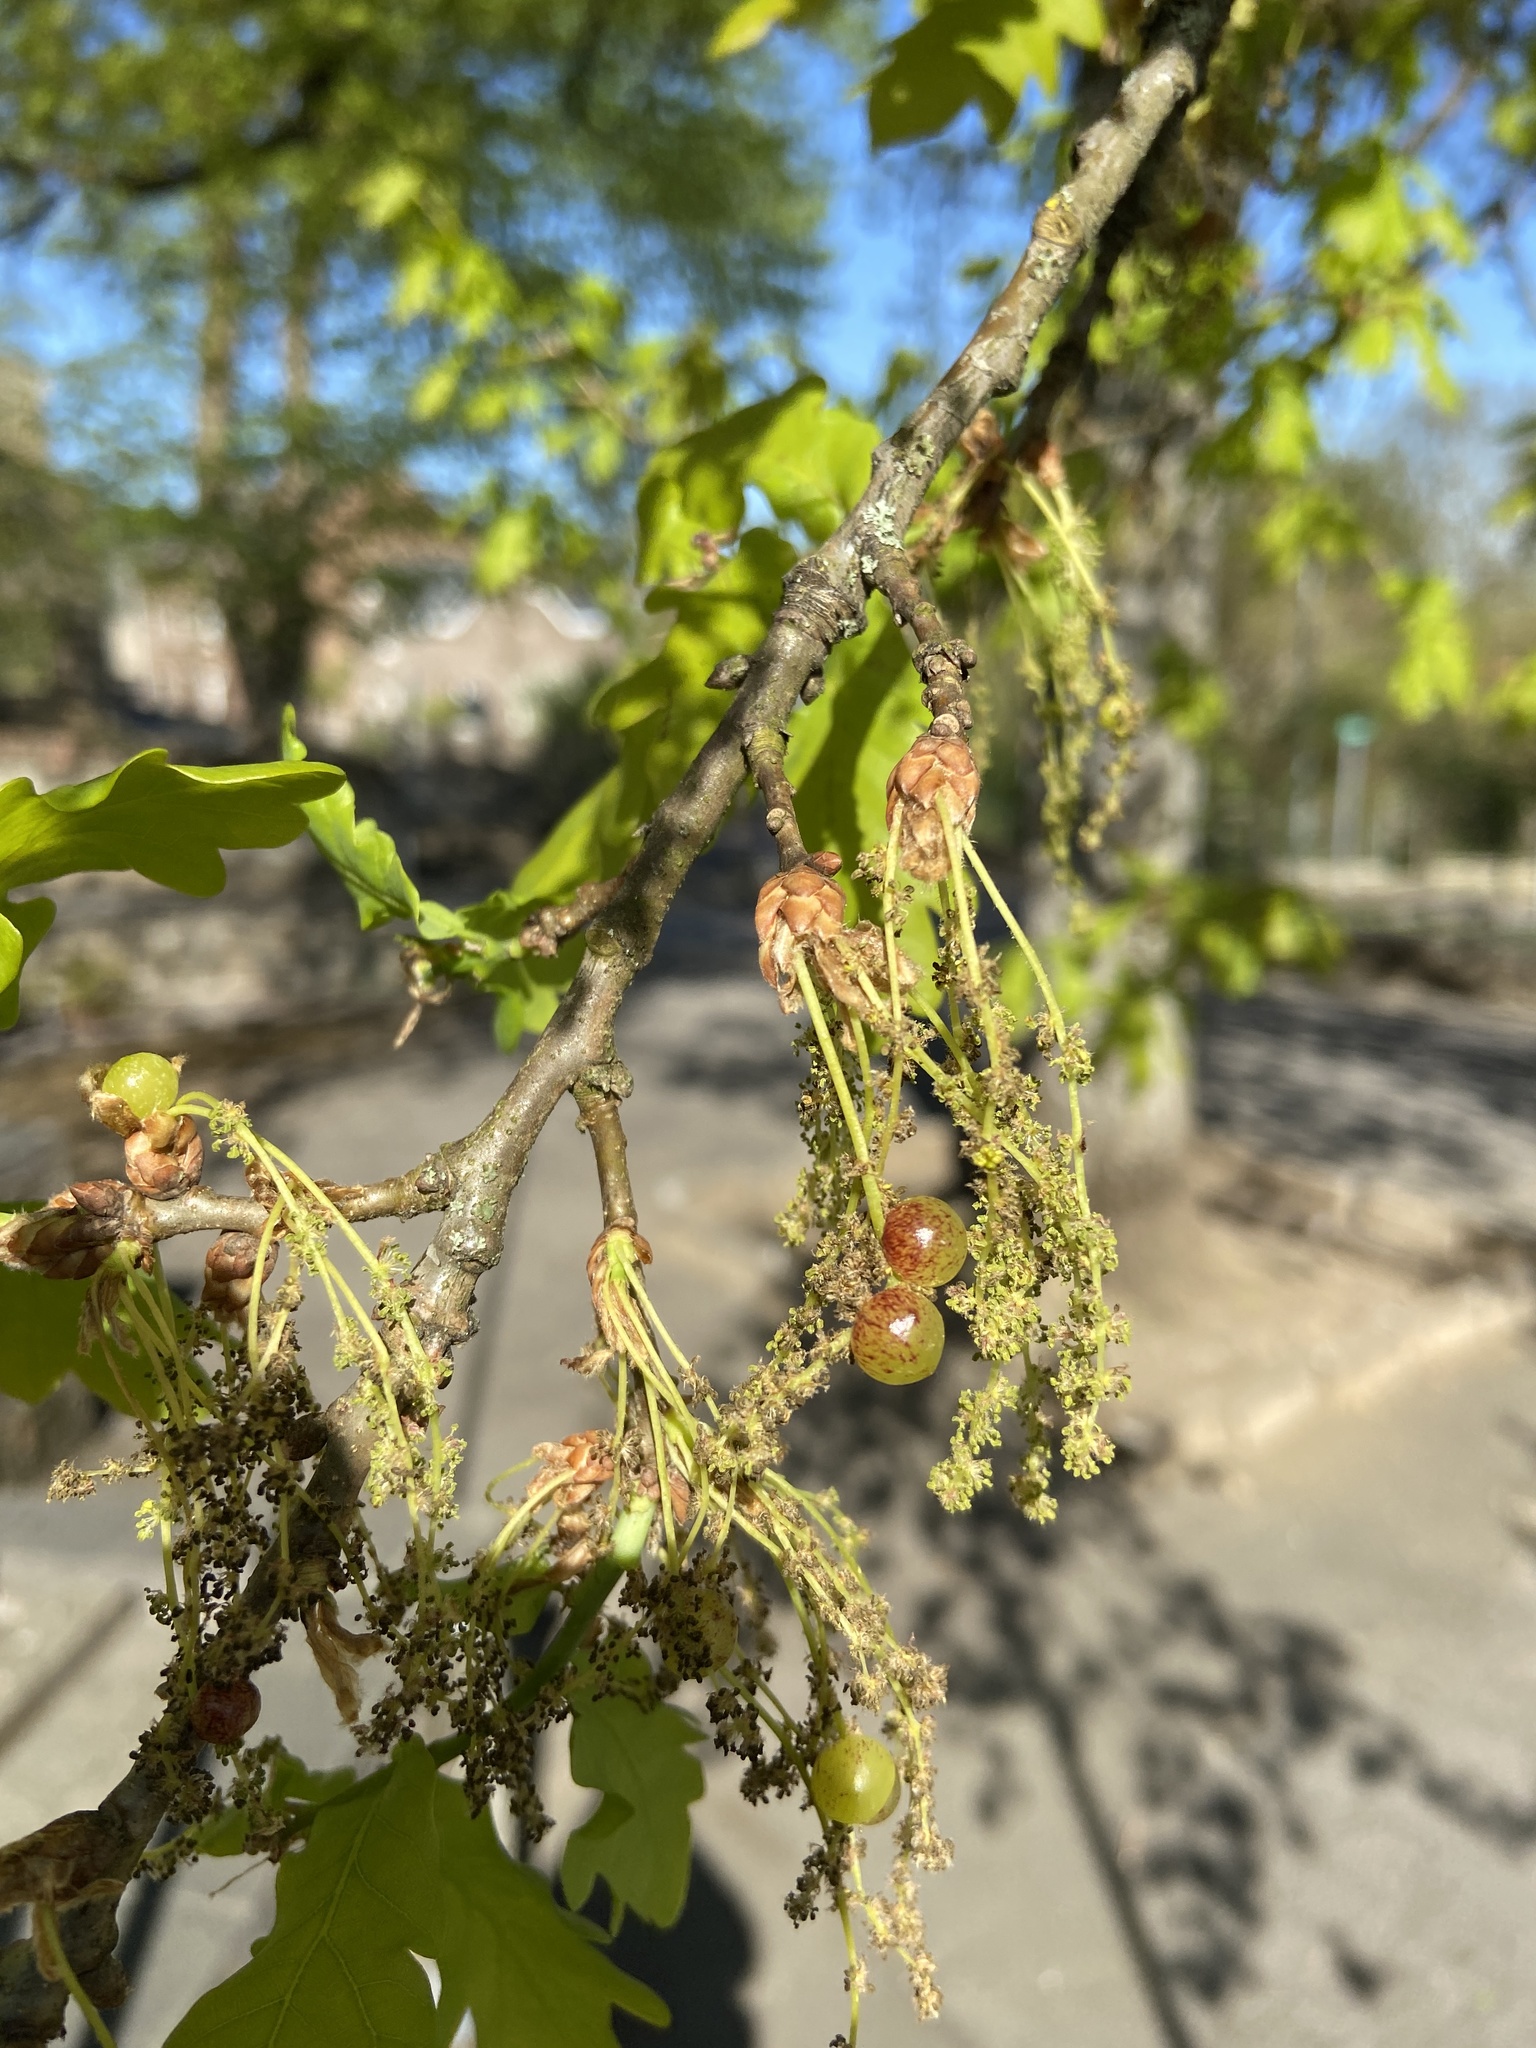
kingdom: Animalia
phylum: Arthropoda
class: Insecta
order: Hymenoptera
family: Cynipidae
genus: Neuroterus
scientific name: Neuroterus quercusbaccarum
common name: Common spangle gall
